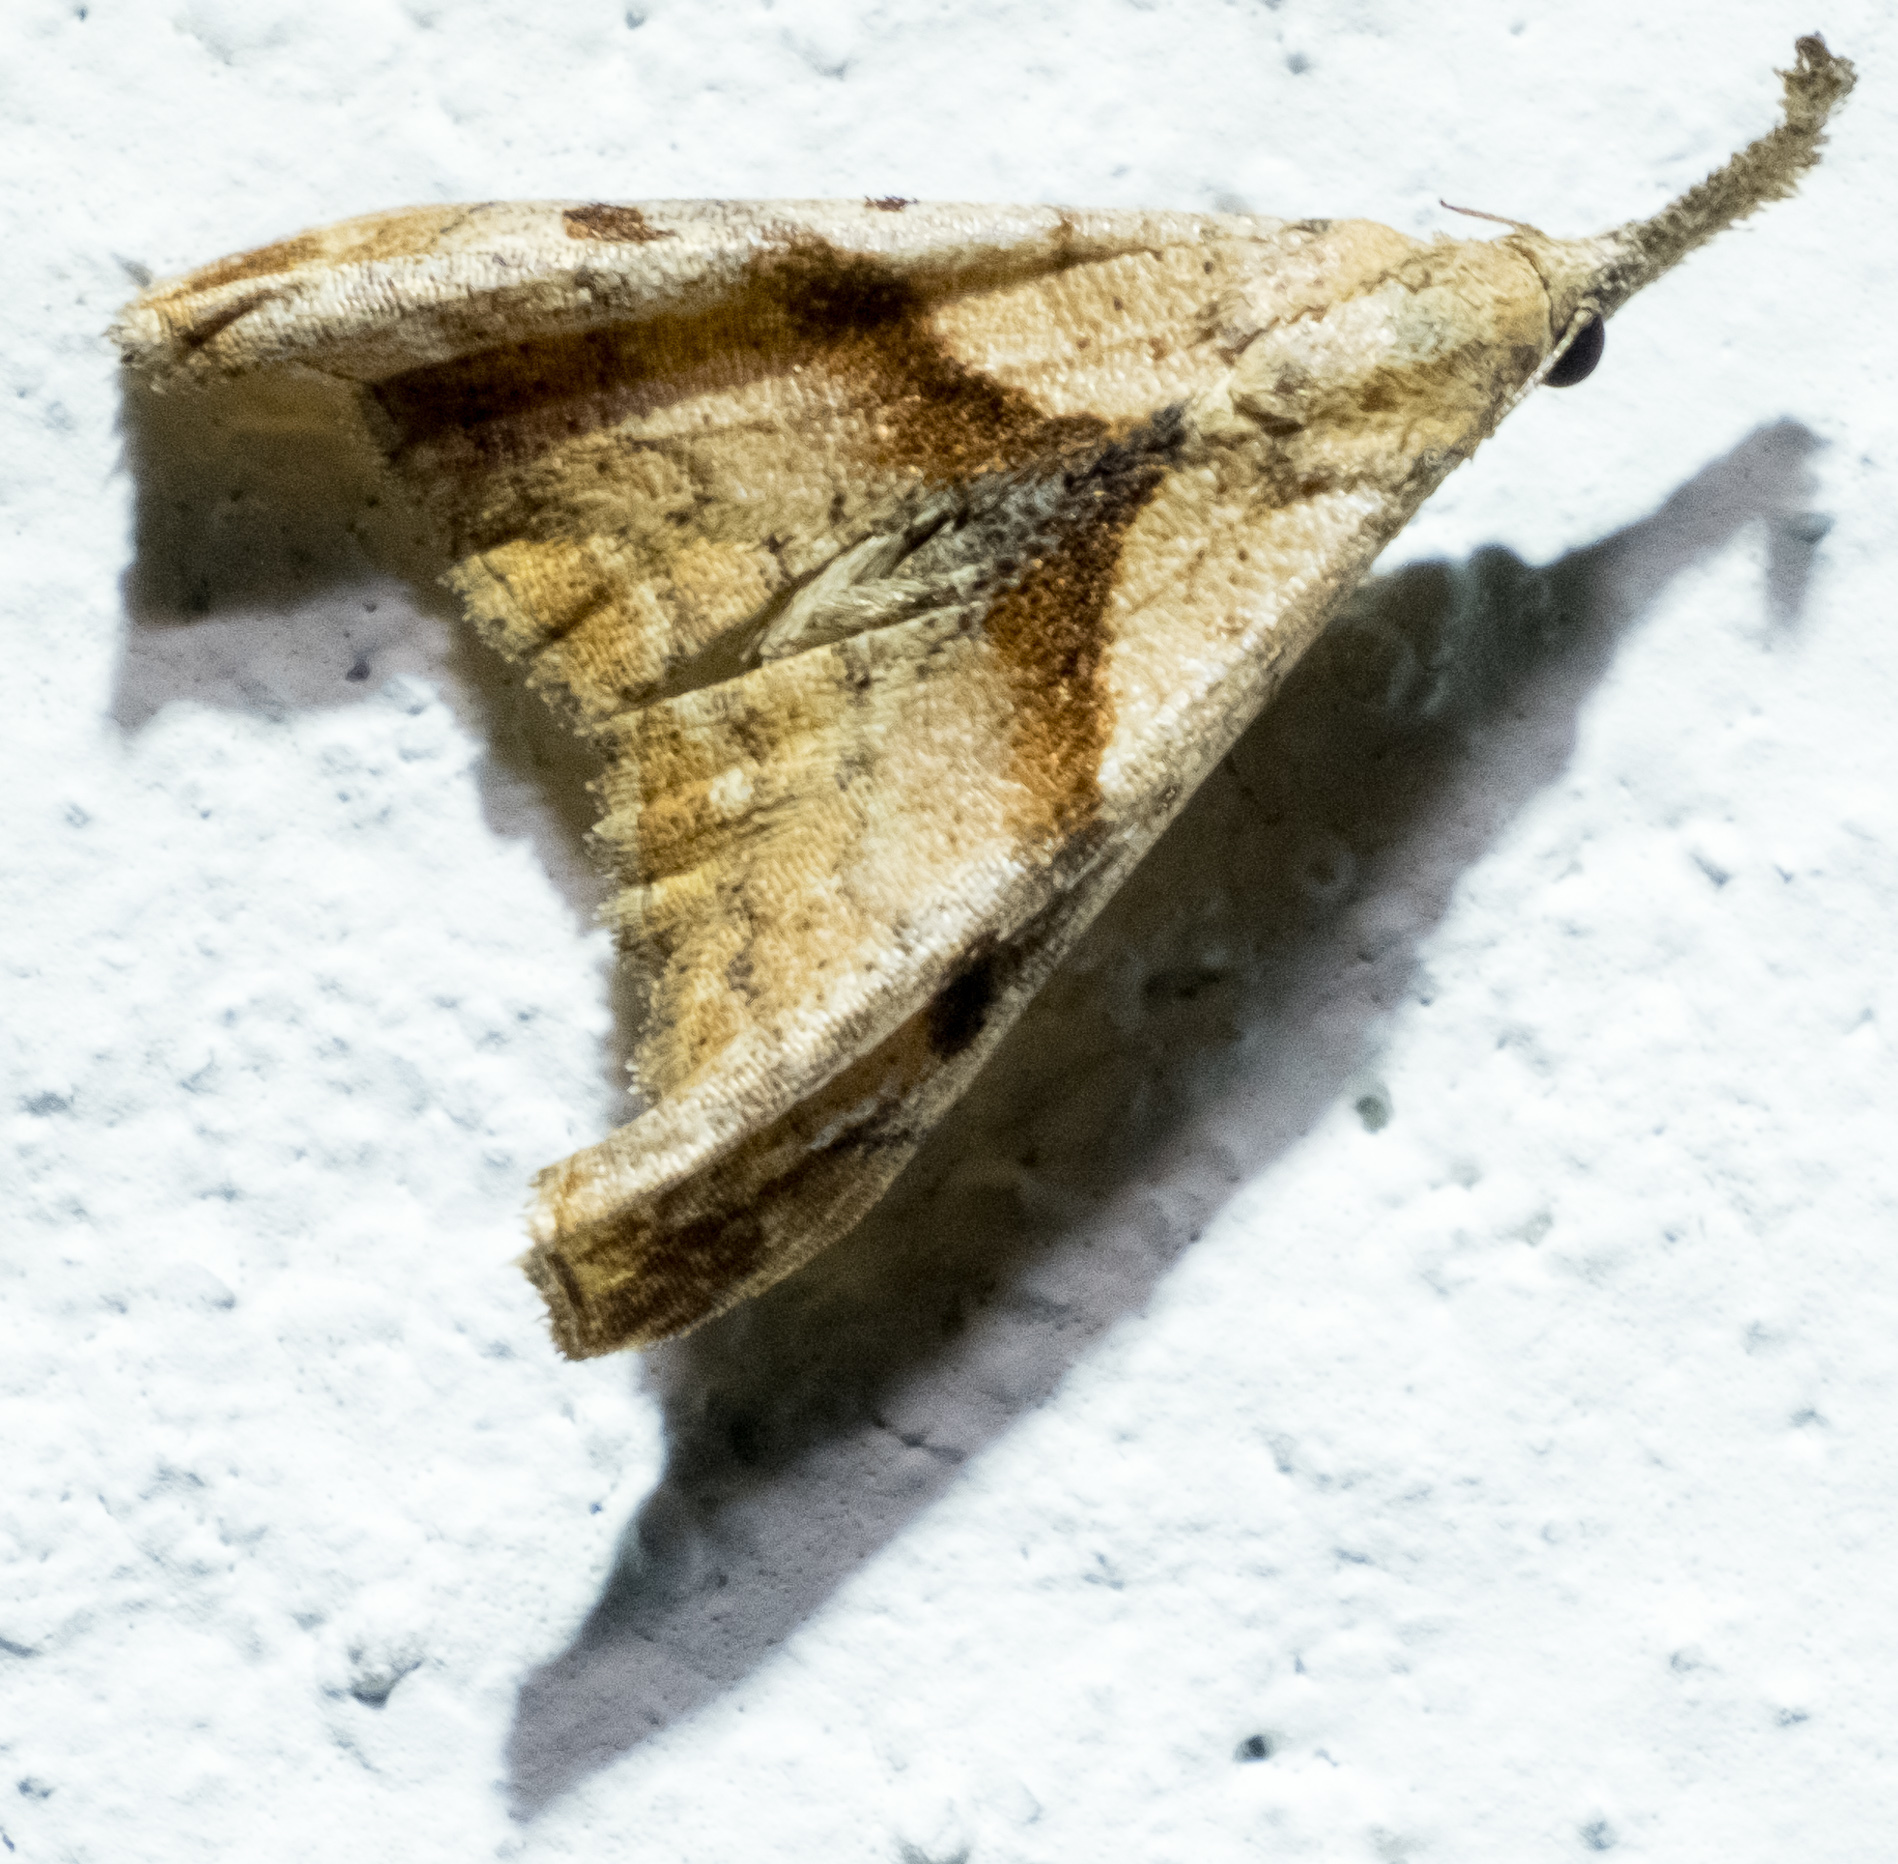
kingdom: Animalia
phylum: Arthropoda
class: Insecta
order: Lepidoptera
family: Erebidae
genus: Palthis
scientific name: Palthis angulalis
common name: Dark-spotted palthis moth
